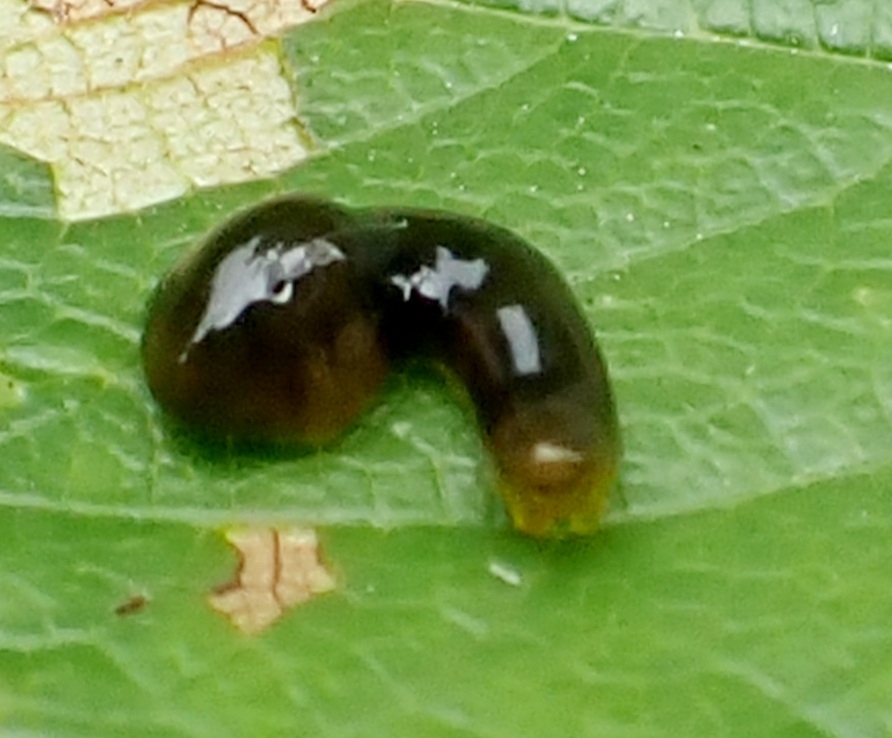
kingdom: Animalia
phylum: Arthropoda
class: Insecta
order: Hymenoptera
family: Tenthredinidae
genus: Caliroa
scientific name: Caliroa cerasi
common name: Pear sawfly
